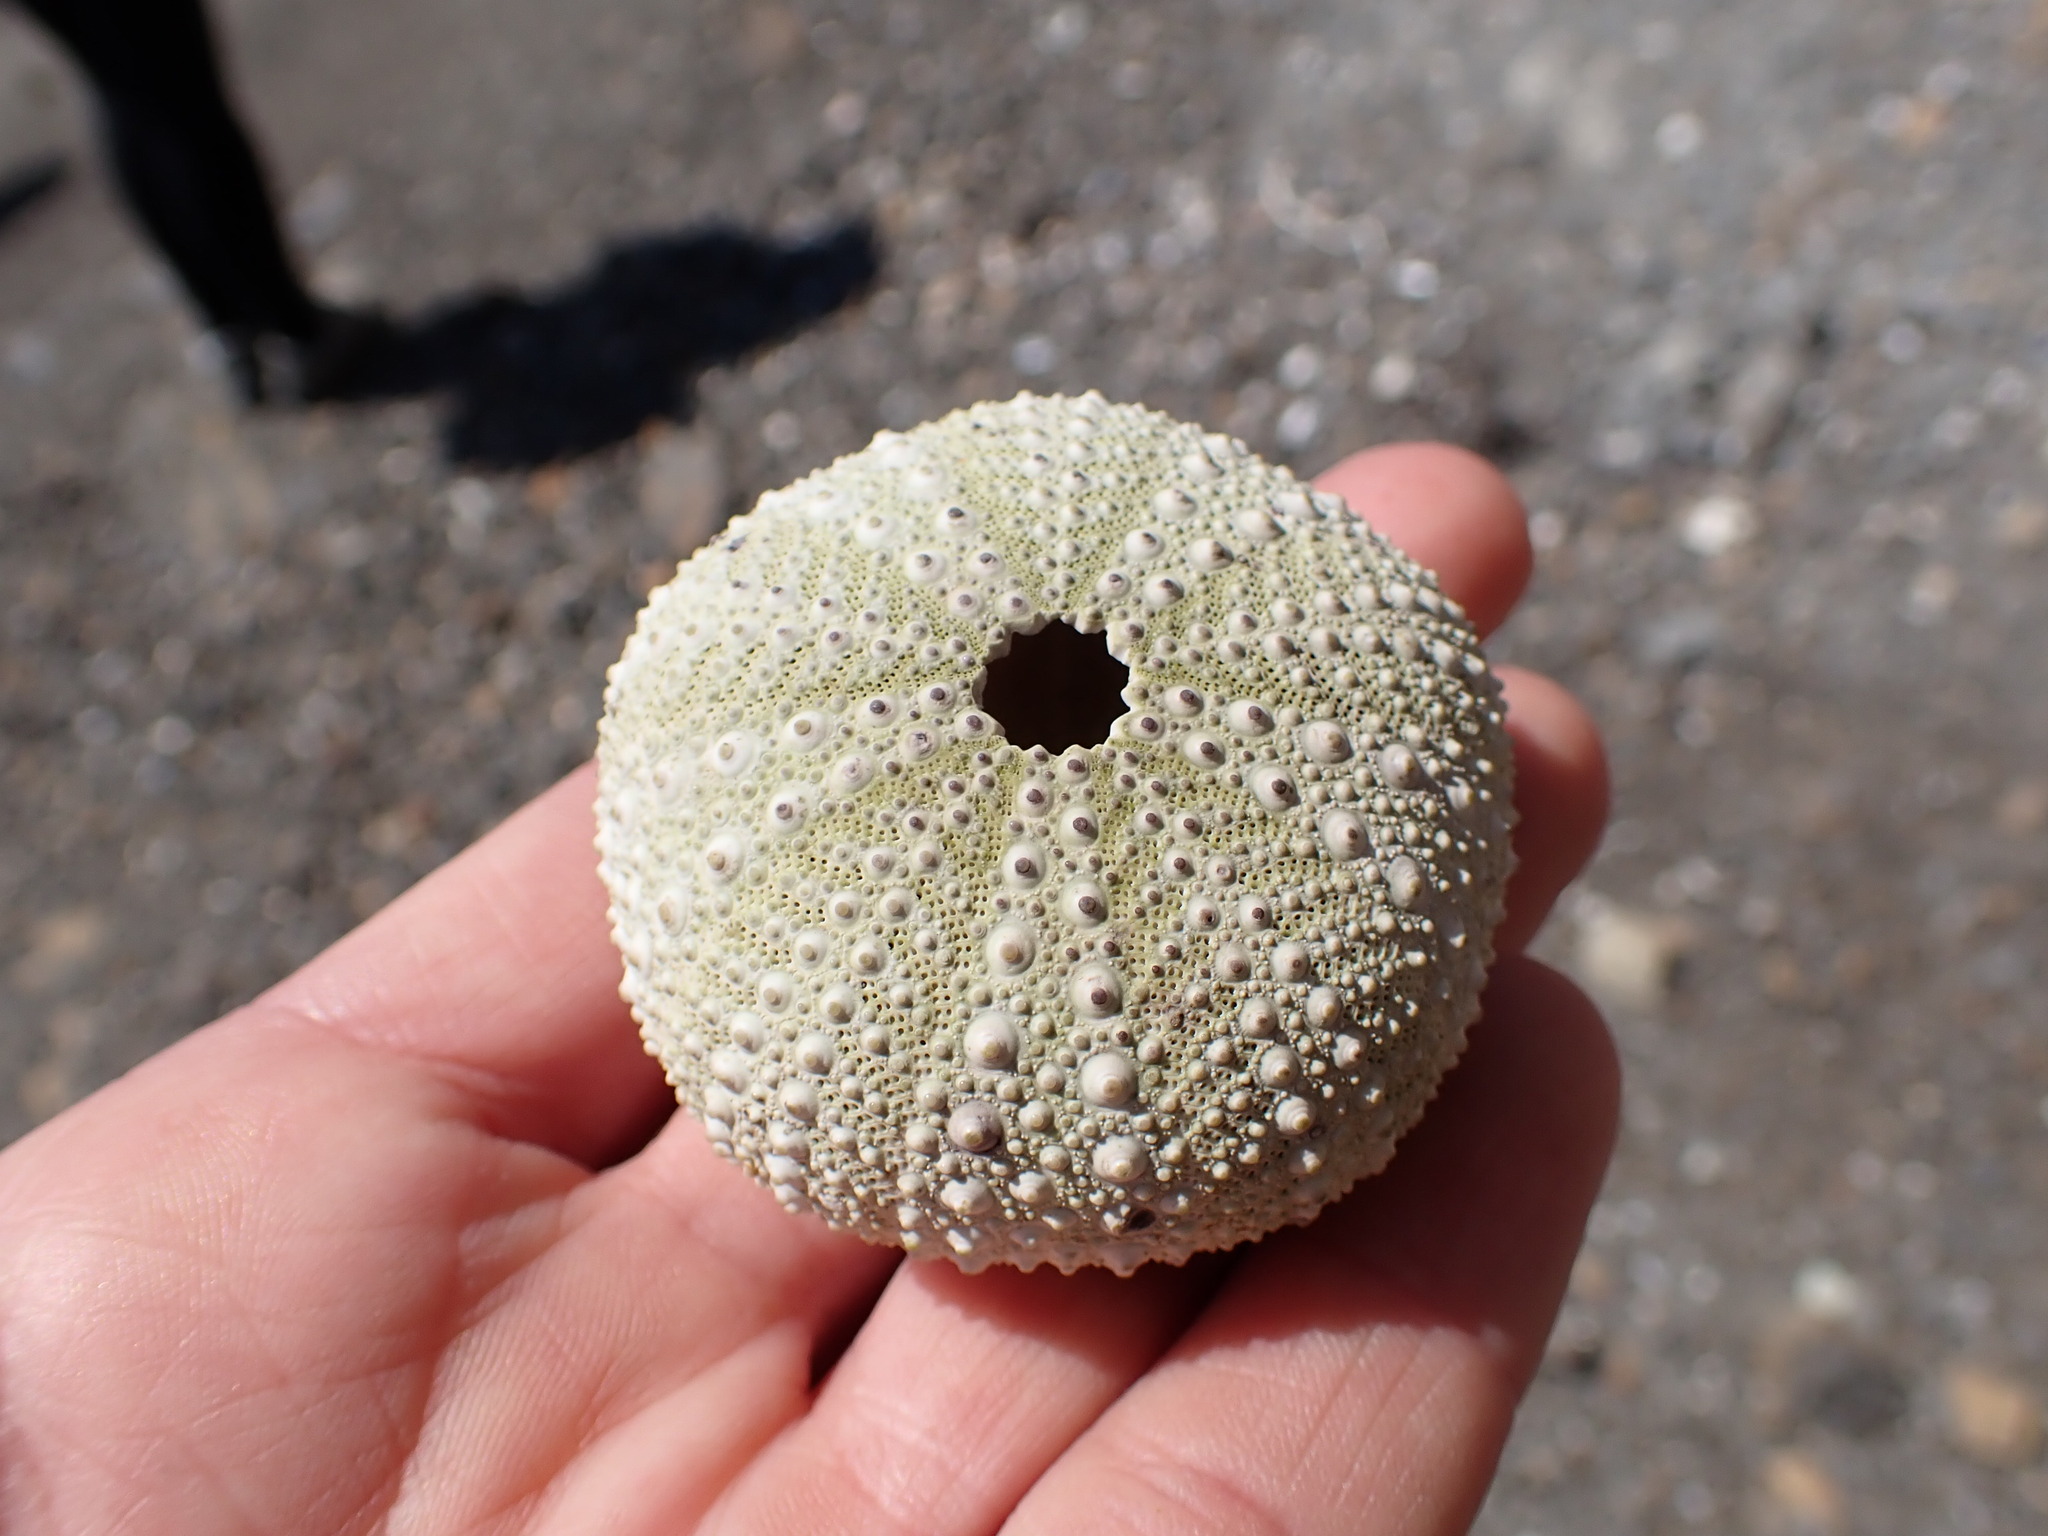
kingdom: Animalia
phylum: Echinodermata
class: Echinoidea
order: Camarodonta
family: Strongylocentrotidae
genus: Strongylocentrotus
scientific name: Strongylocentrotus purpuratus
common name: Purple sea urchin
